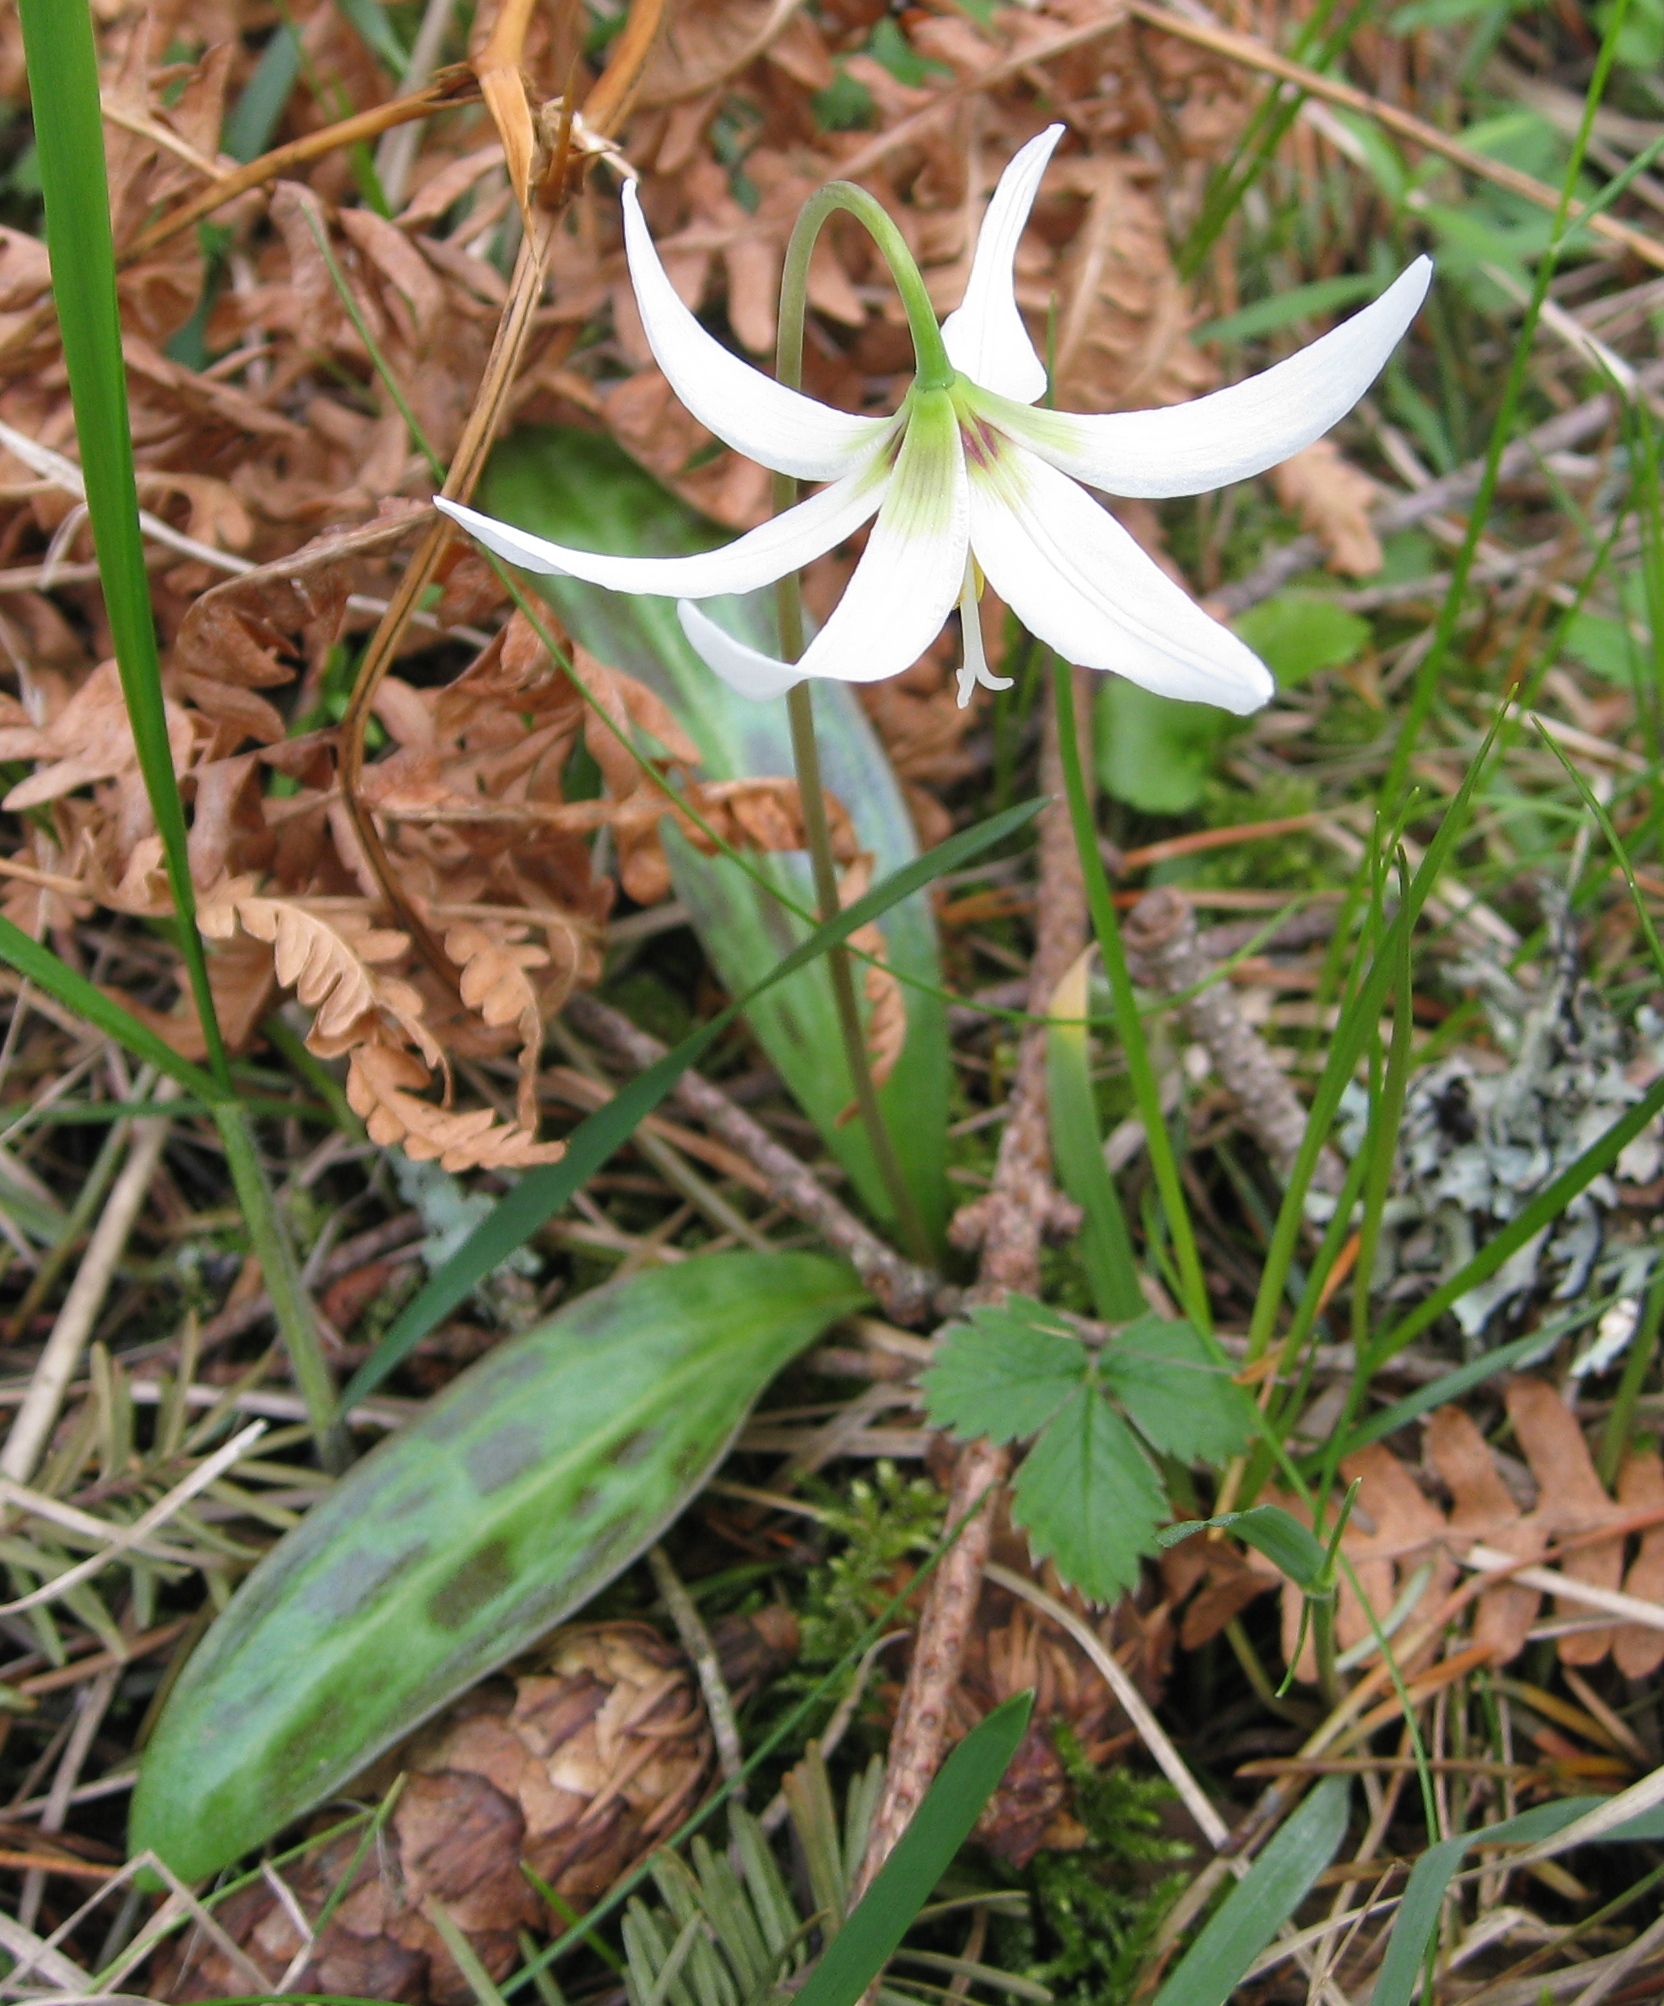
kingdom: Plantae
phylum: Tracheophyta
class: Liliopsida
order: Liliales
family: Liliaceae
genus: Erythronium
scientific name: Erythronium oregonum
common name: Giant adder's-tongue
